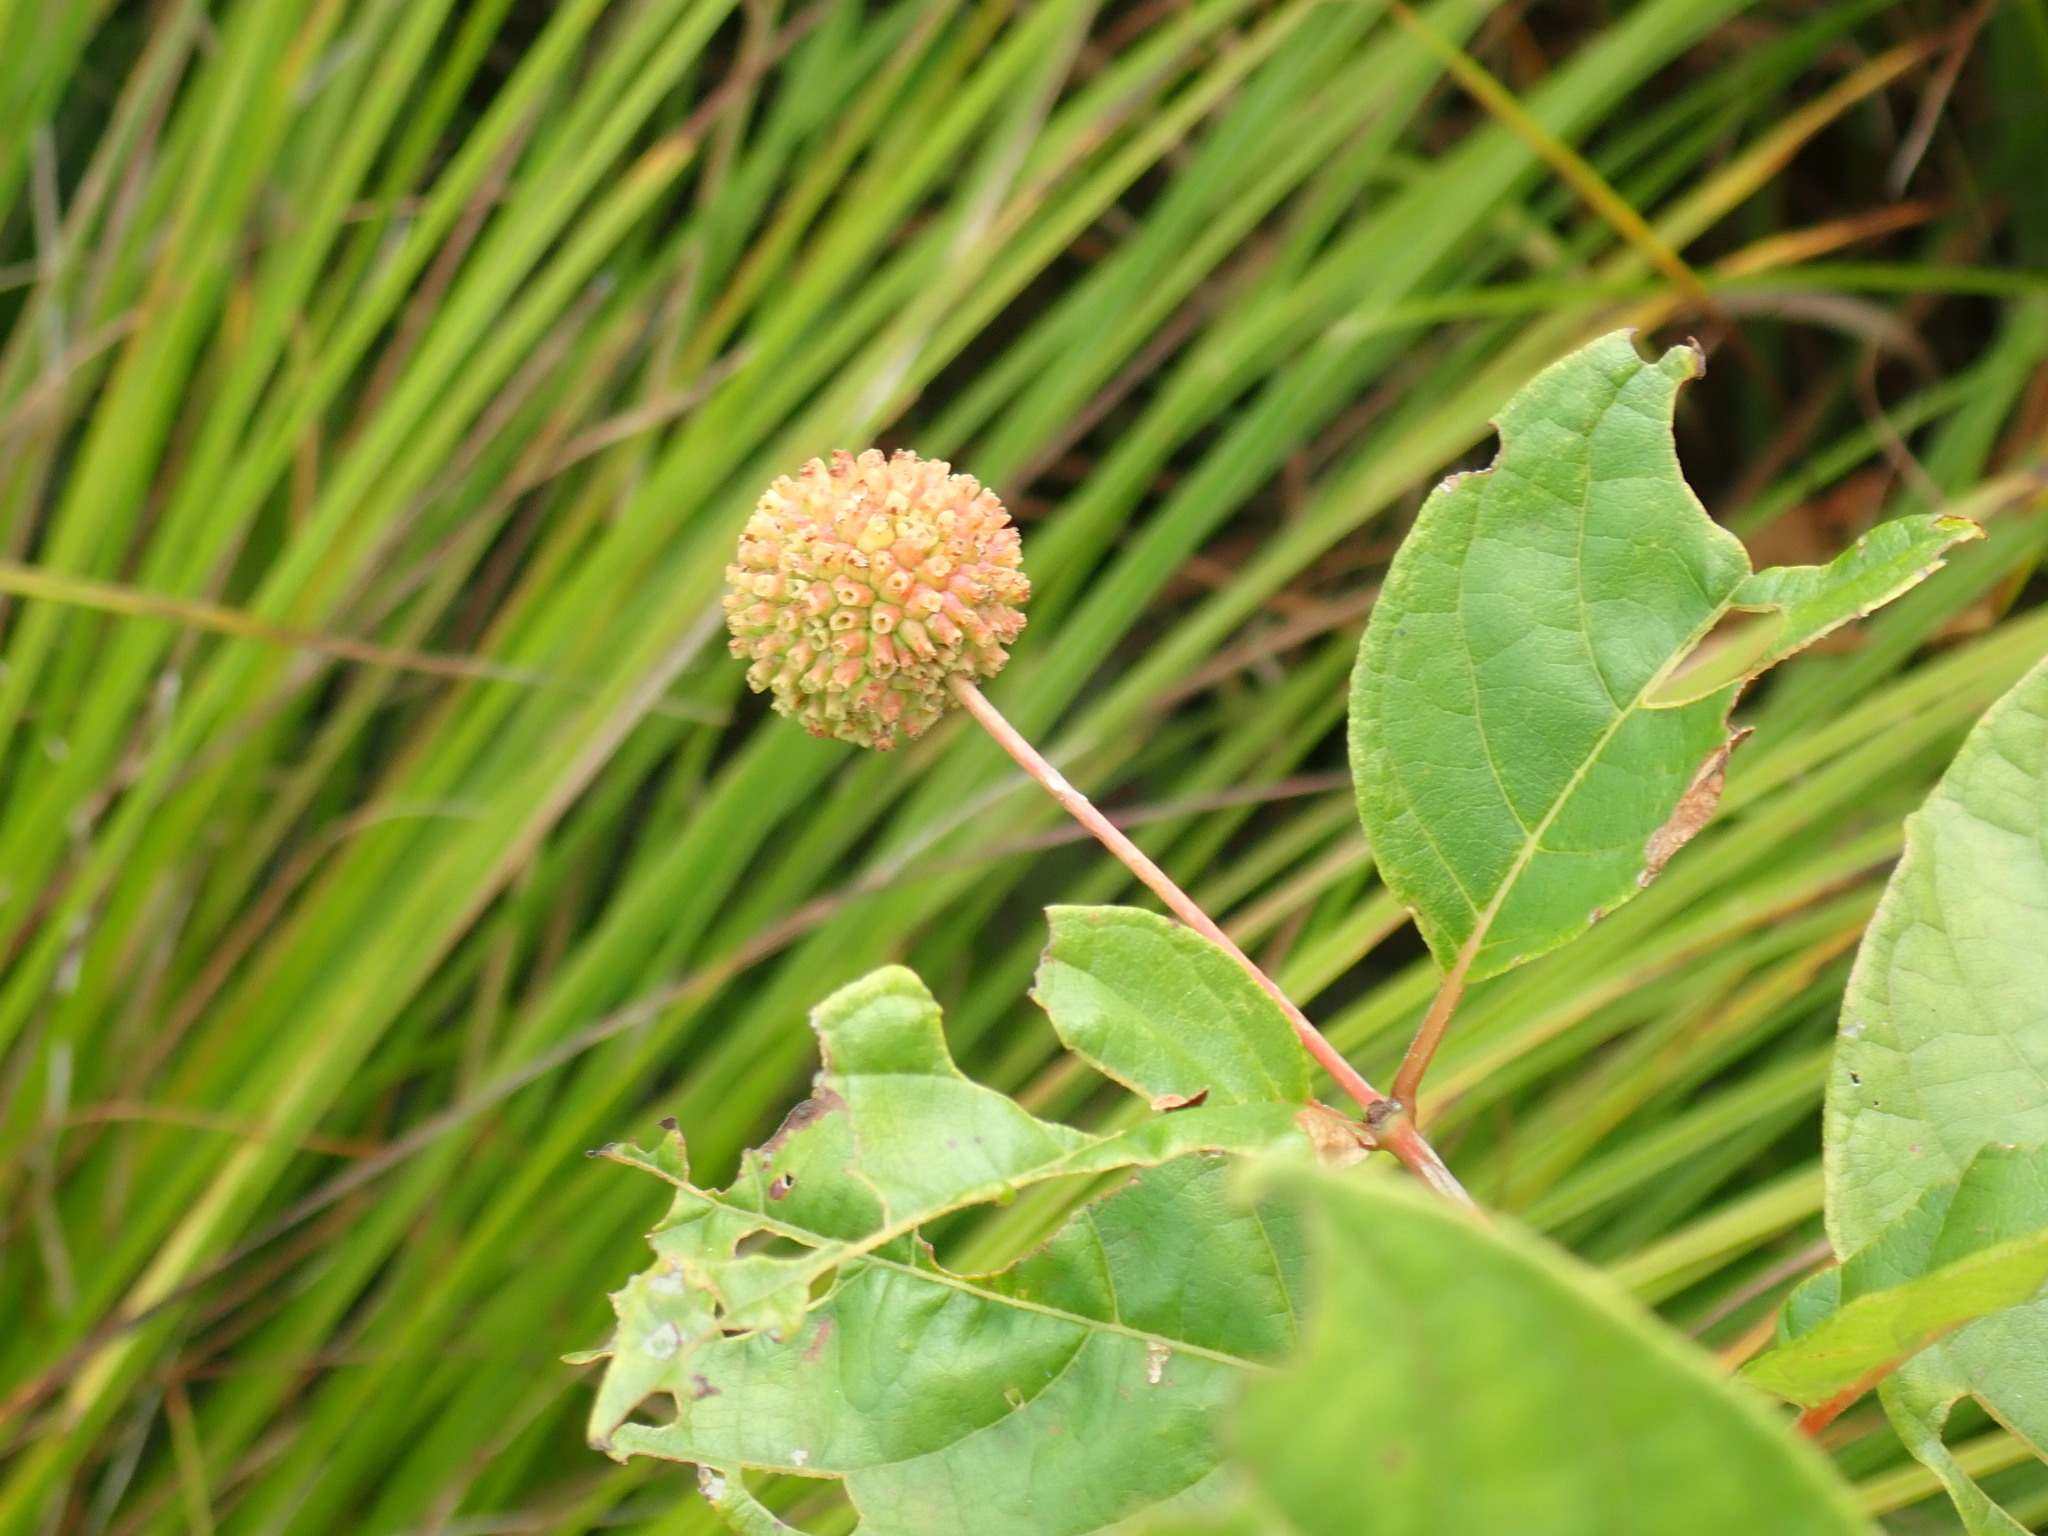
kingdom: Plantae
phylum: Tracheophyta
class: Magnoliopsida
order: Gentianales
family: Rubiaceae
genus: Cephalanthus
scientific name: Cephalanthus occidentalis
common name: Button-willow
